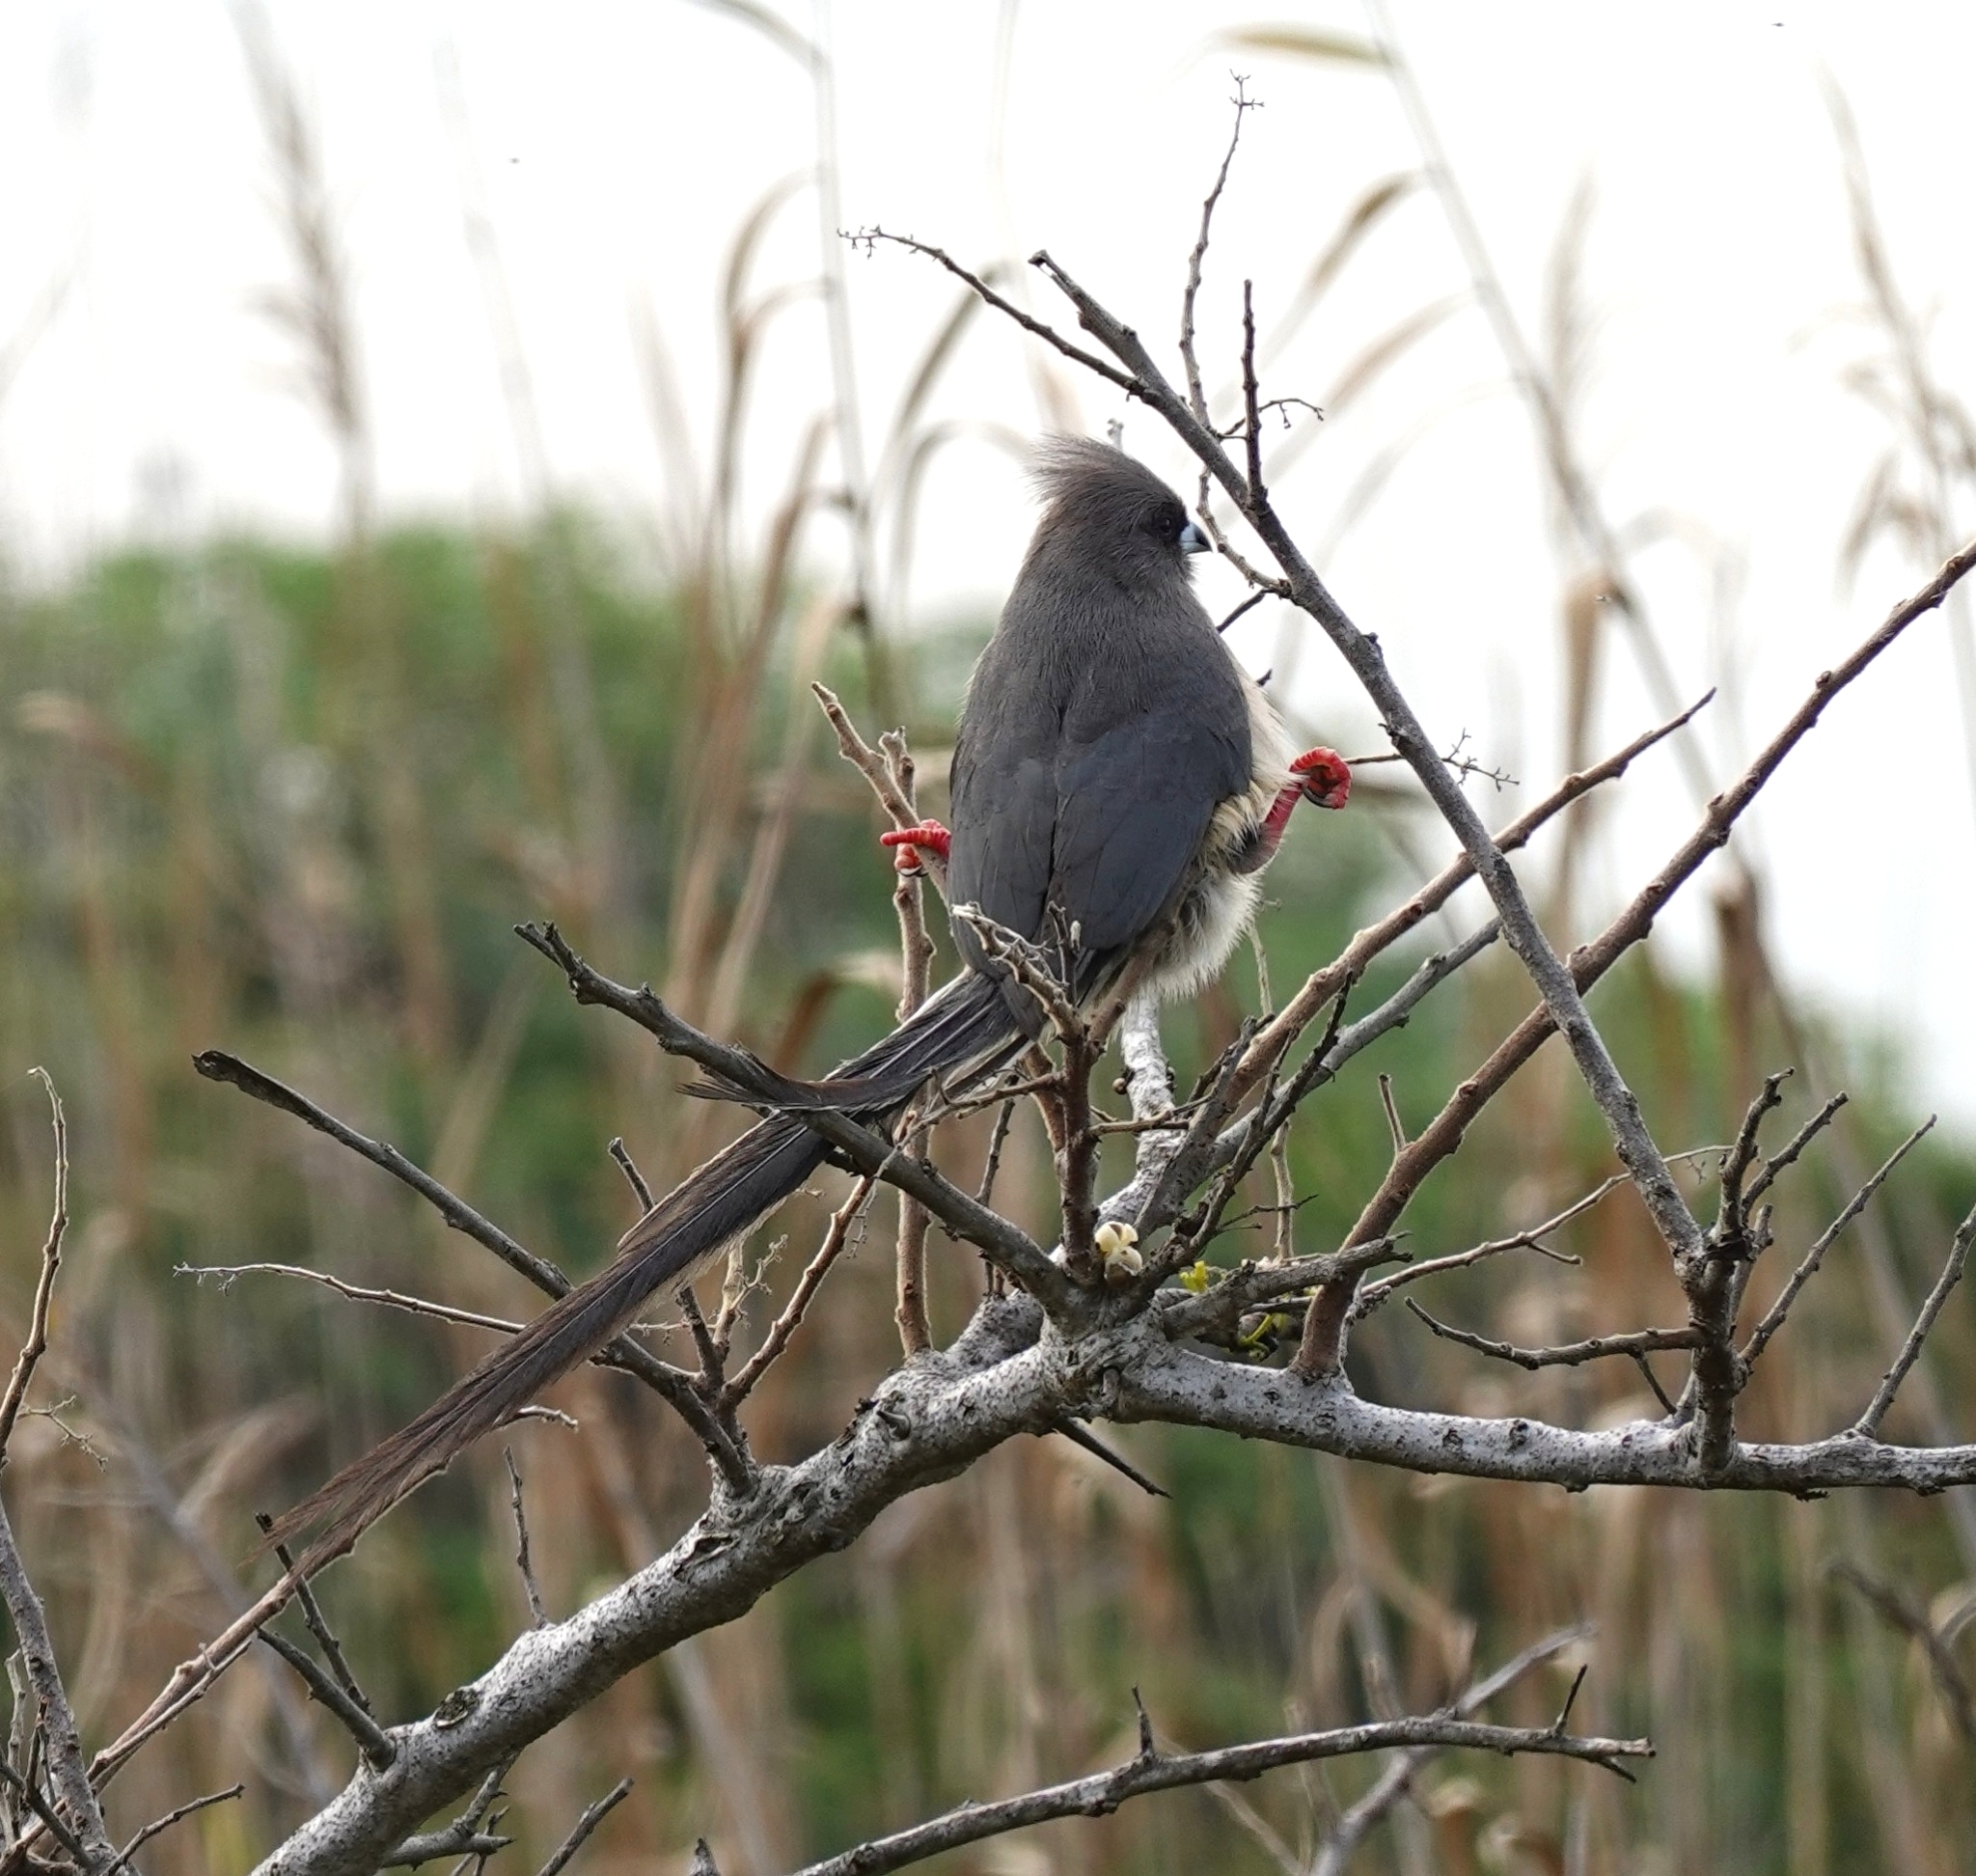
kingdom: Animalia
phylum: Chordata
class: Aves
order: Coliiformes
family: Coliidae
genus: Colius
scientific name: Colius colius
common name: White-backed mousebird
